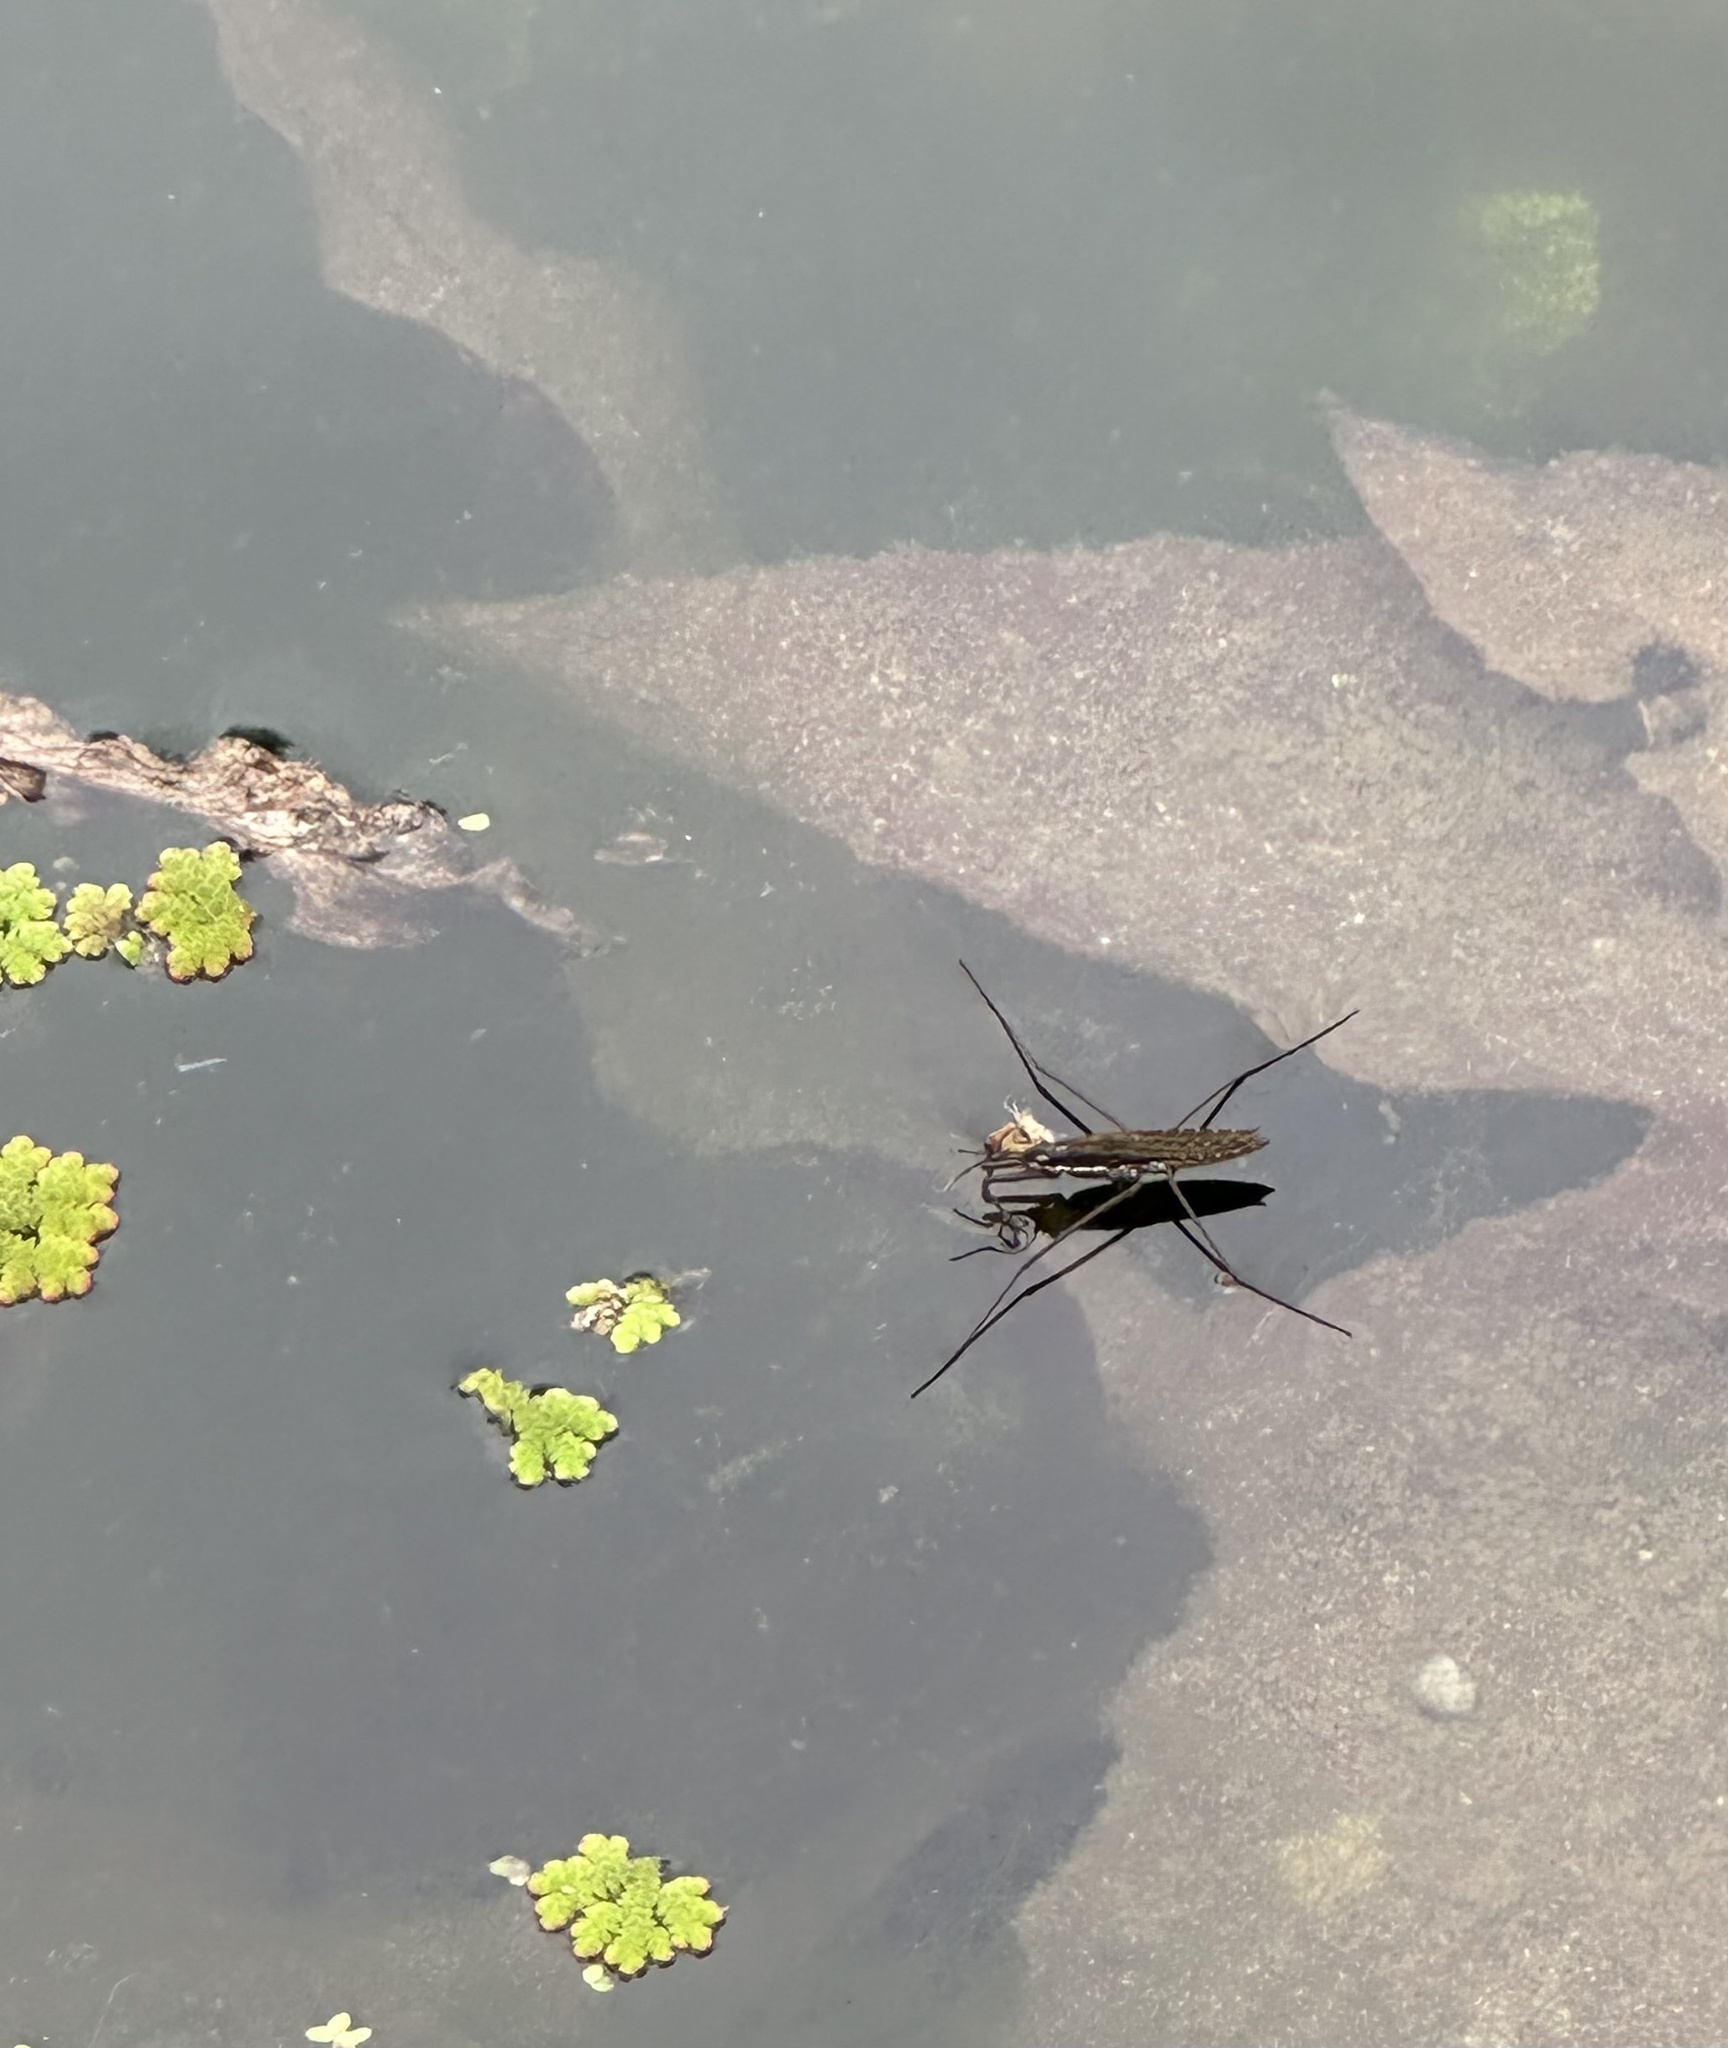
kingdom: Animalia
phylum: Arthropoda
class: Insecta
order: Hemiptera
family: Gerridae
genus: Aquarius
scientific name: Aquarius remigis
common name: Common water strider
